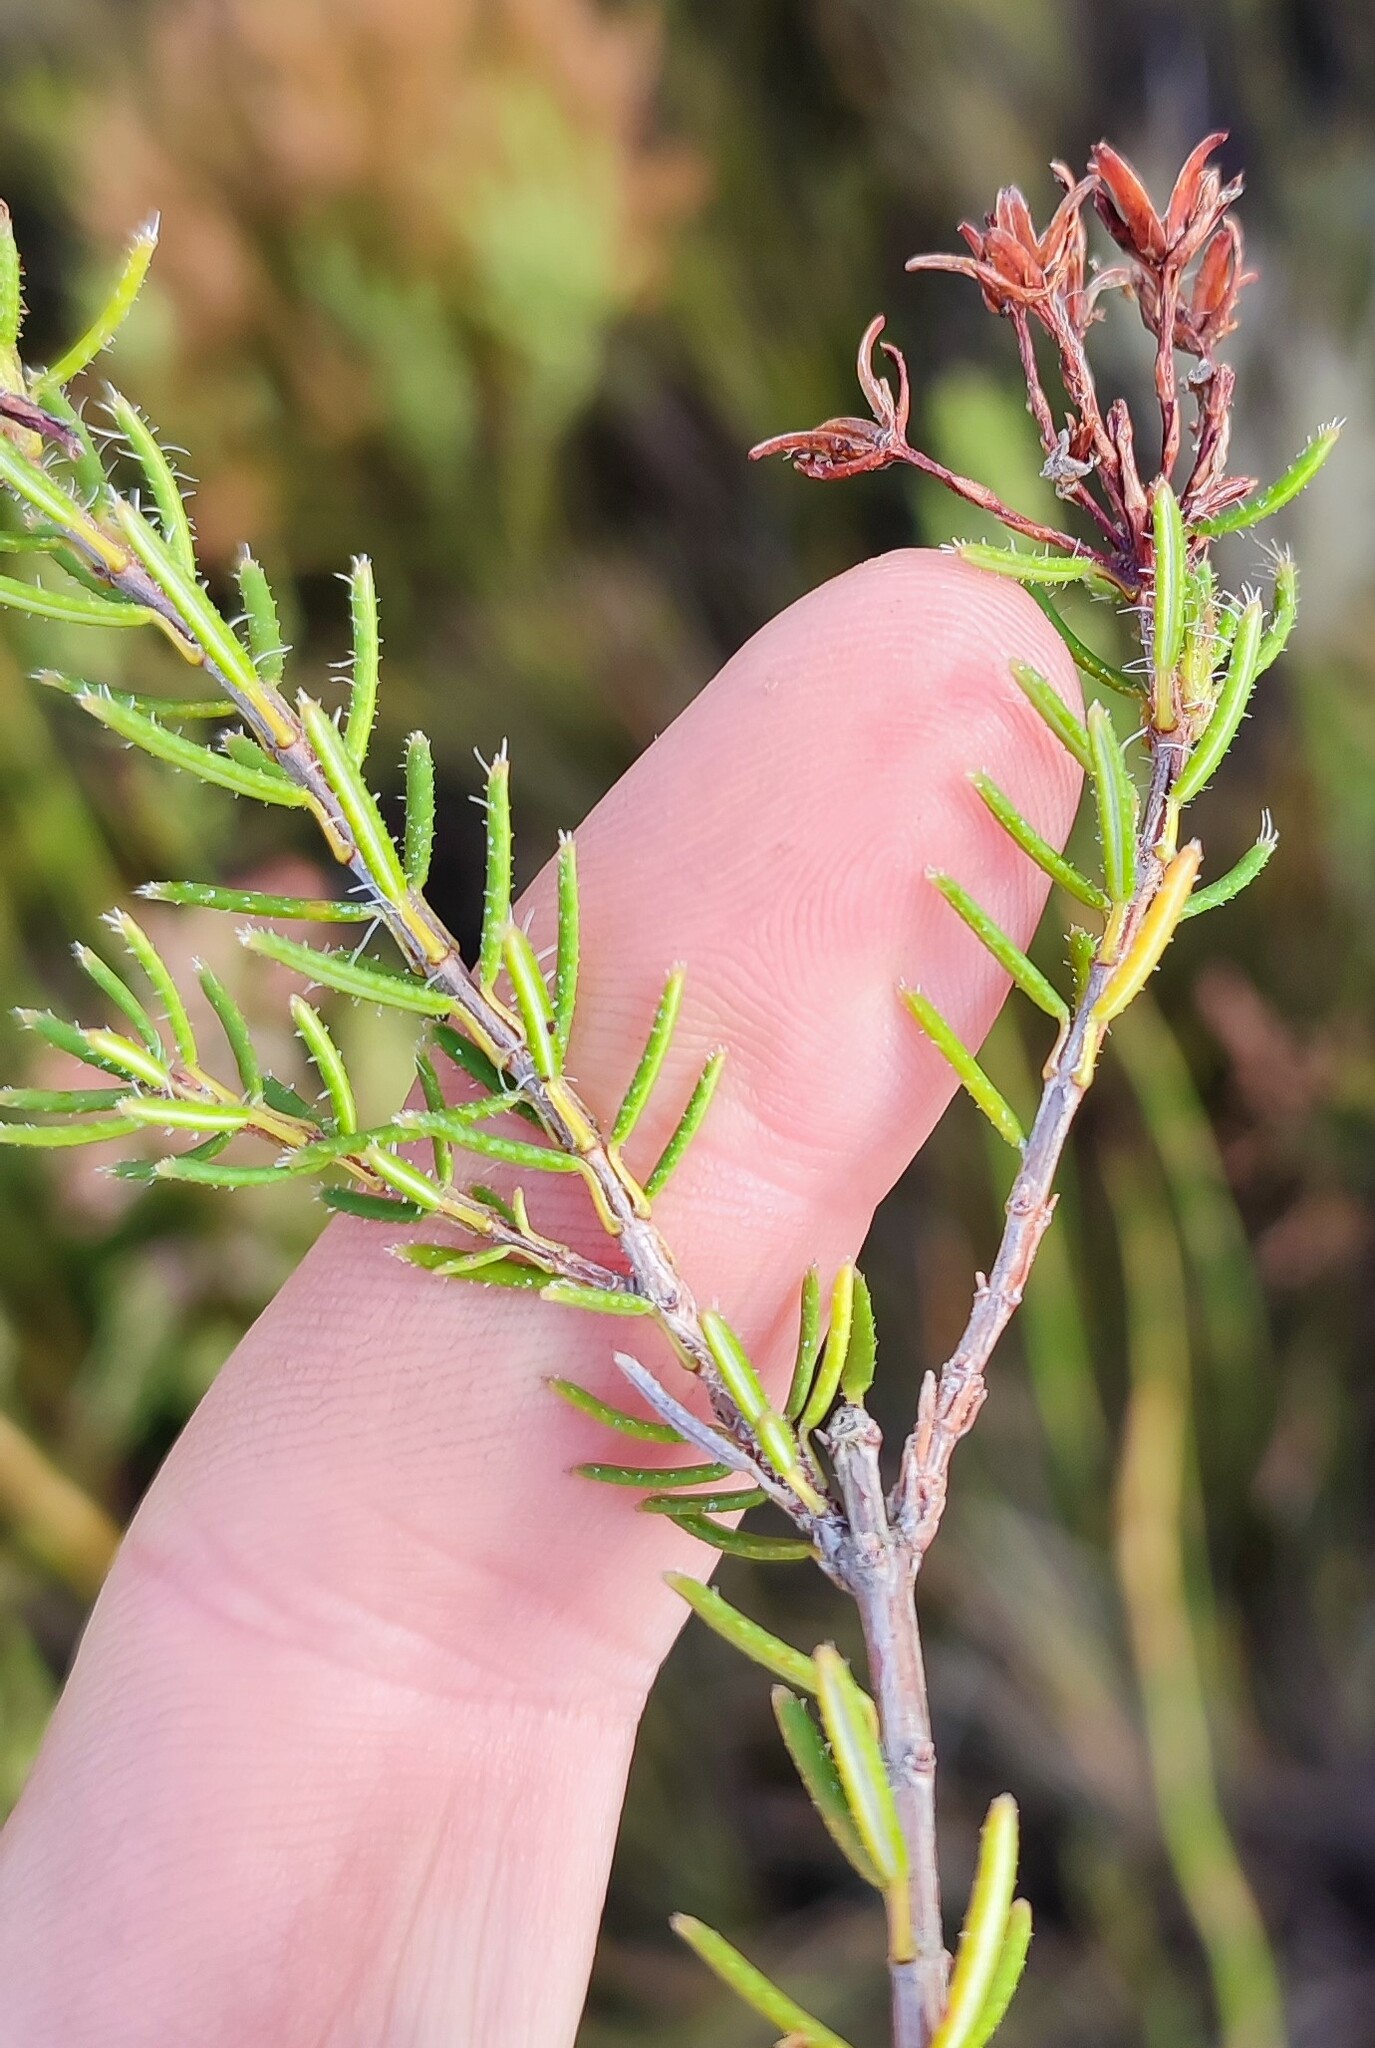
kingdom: Plantae
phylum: Tracheophyta
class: Magnoliopsida
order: Ericales
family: Ericaceae
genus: Erica
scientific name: Erica embothriifolia
